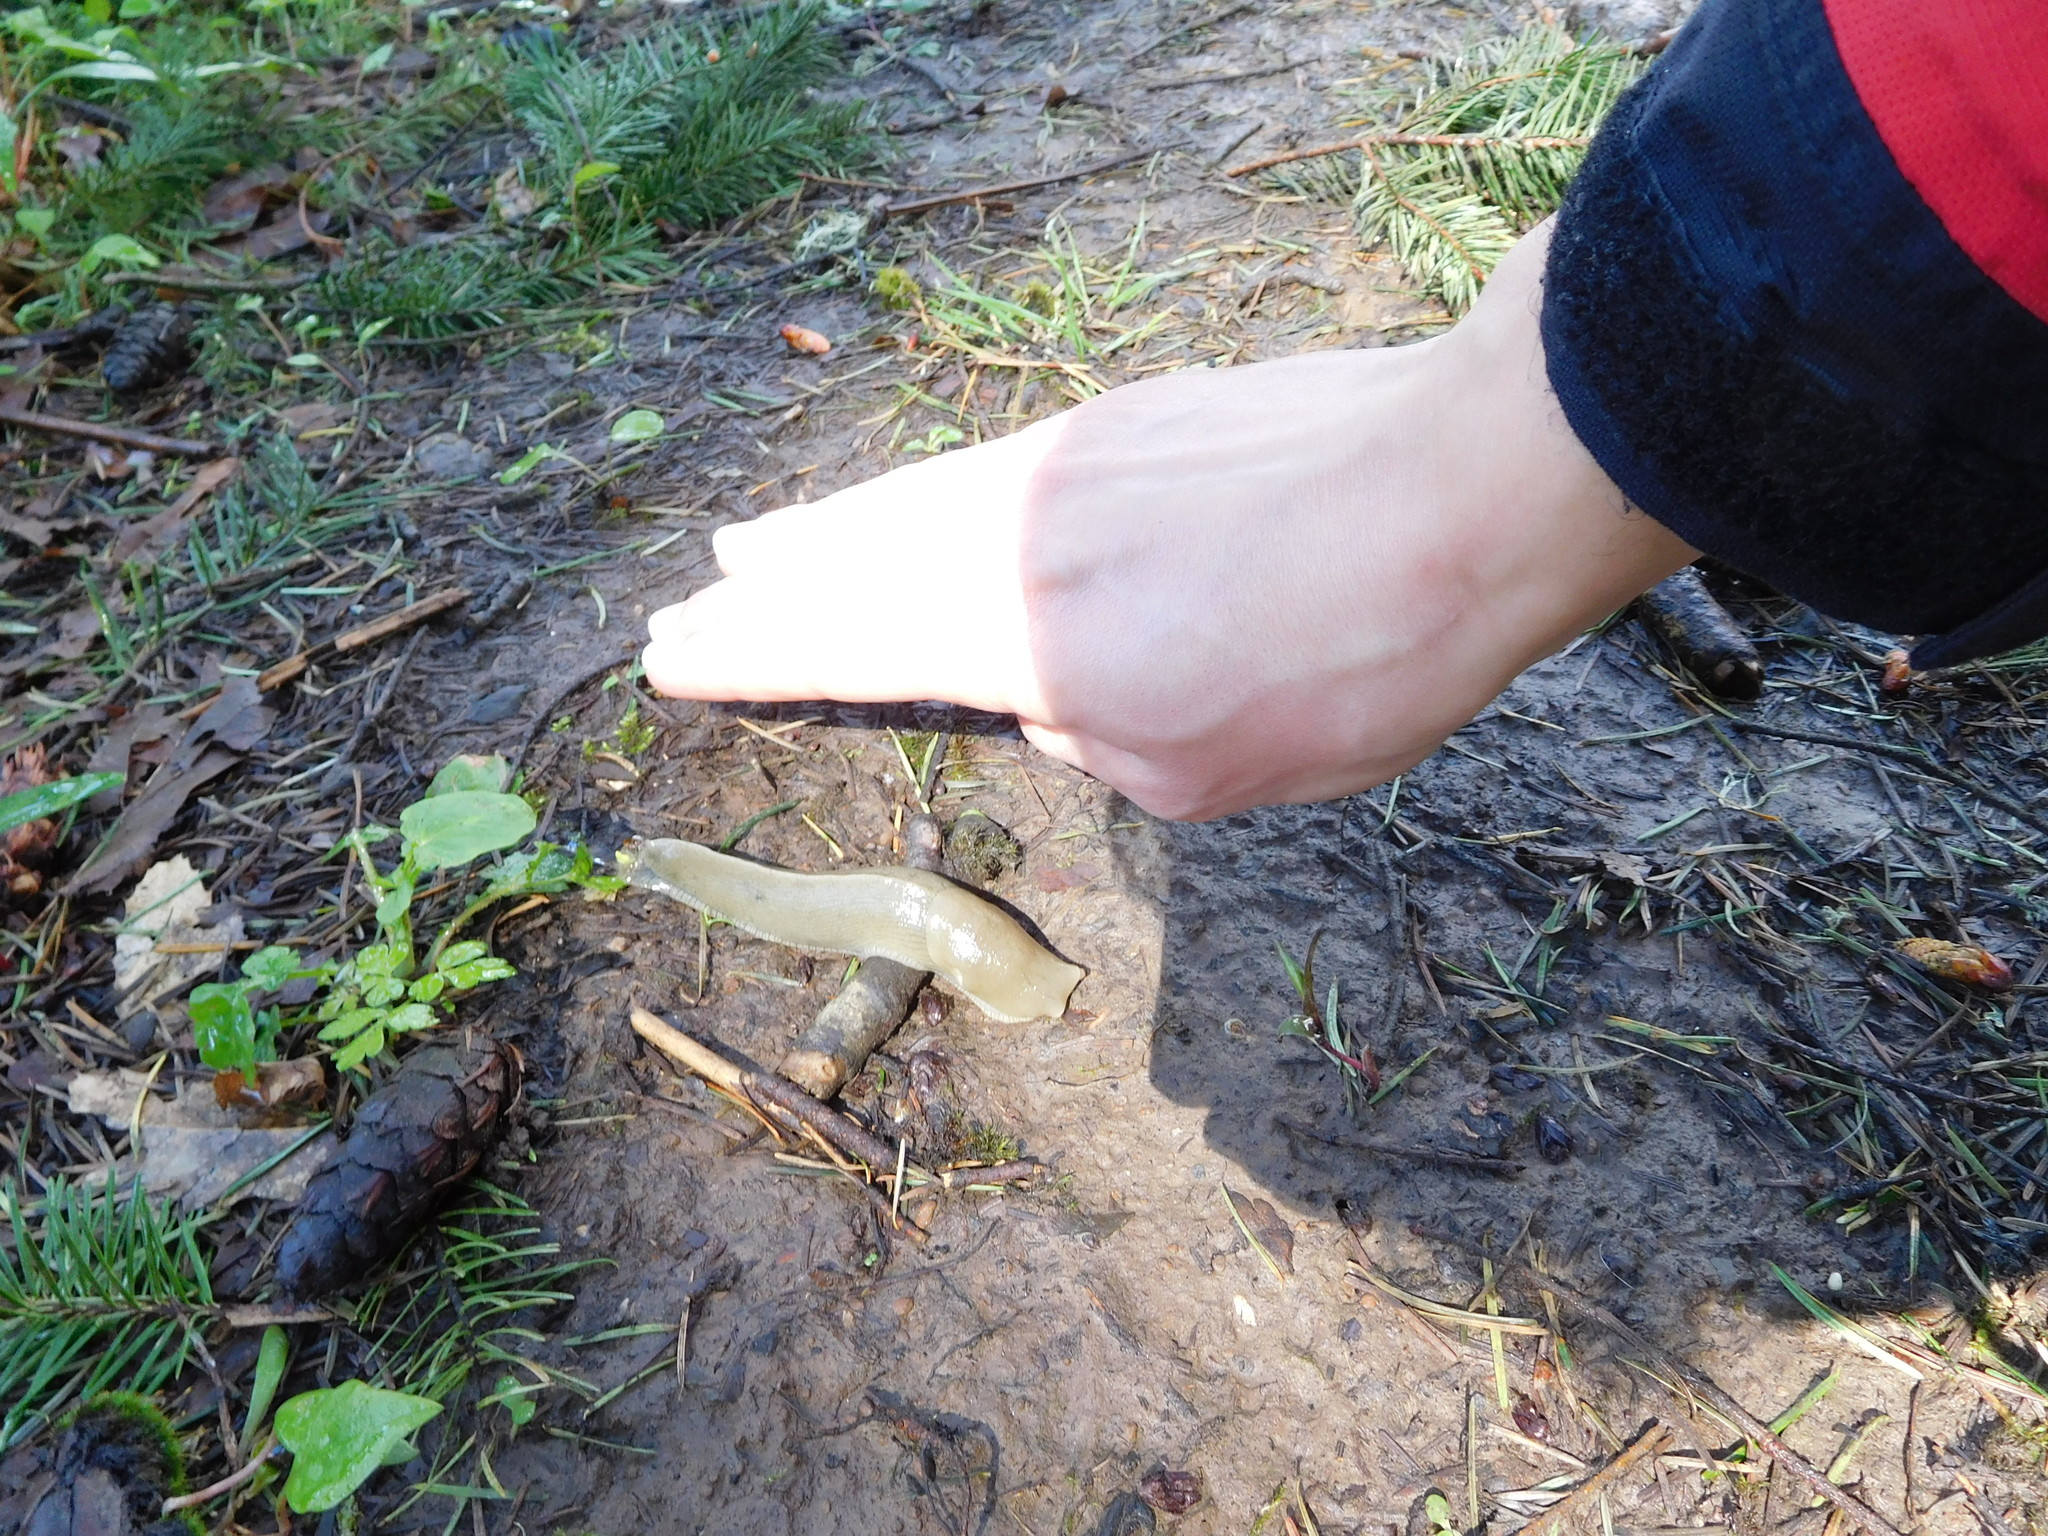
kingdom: Animalia
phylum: Mollusca
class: Gastropoda
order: Stylommatophora
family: Ariolimacidae
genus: Ariolimax
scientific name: Ariolimax columbianus
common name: Pacific banana slug
